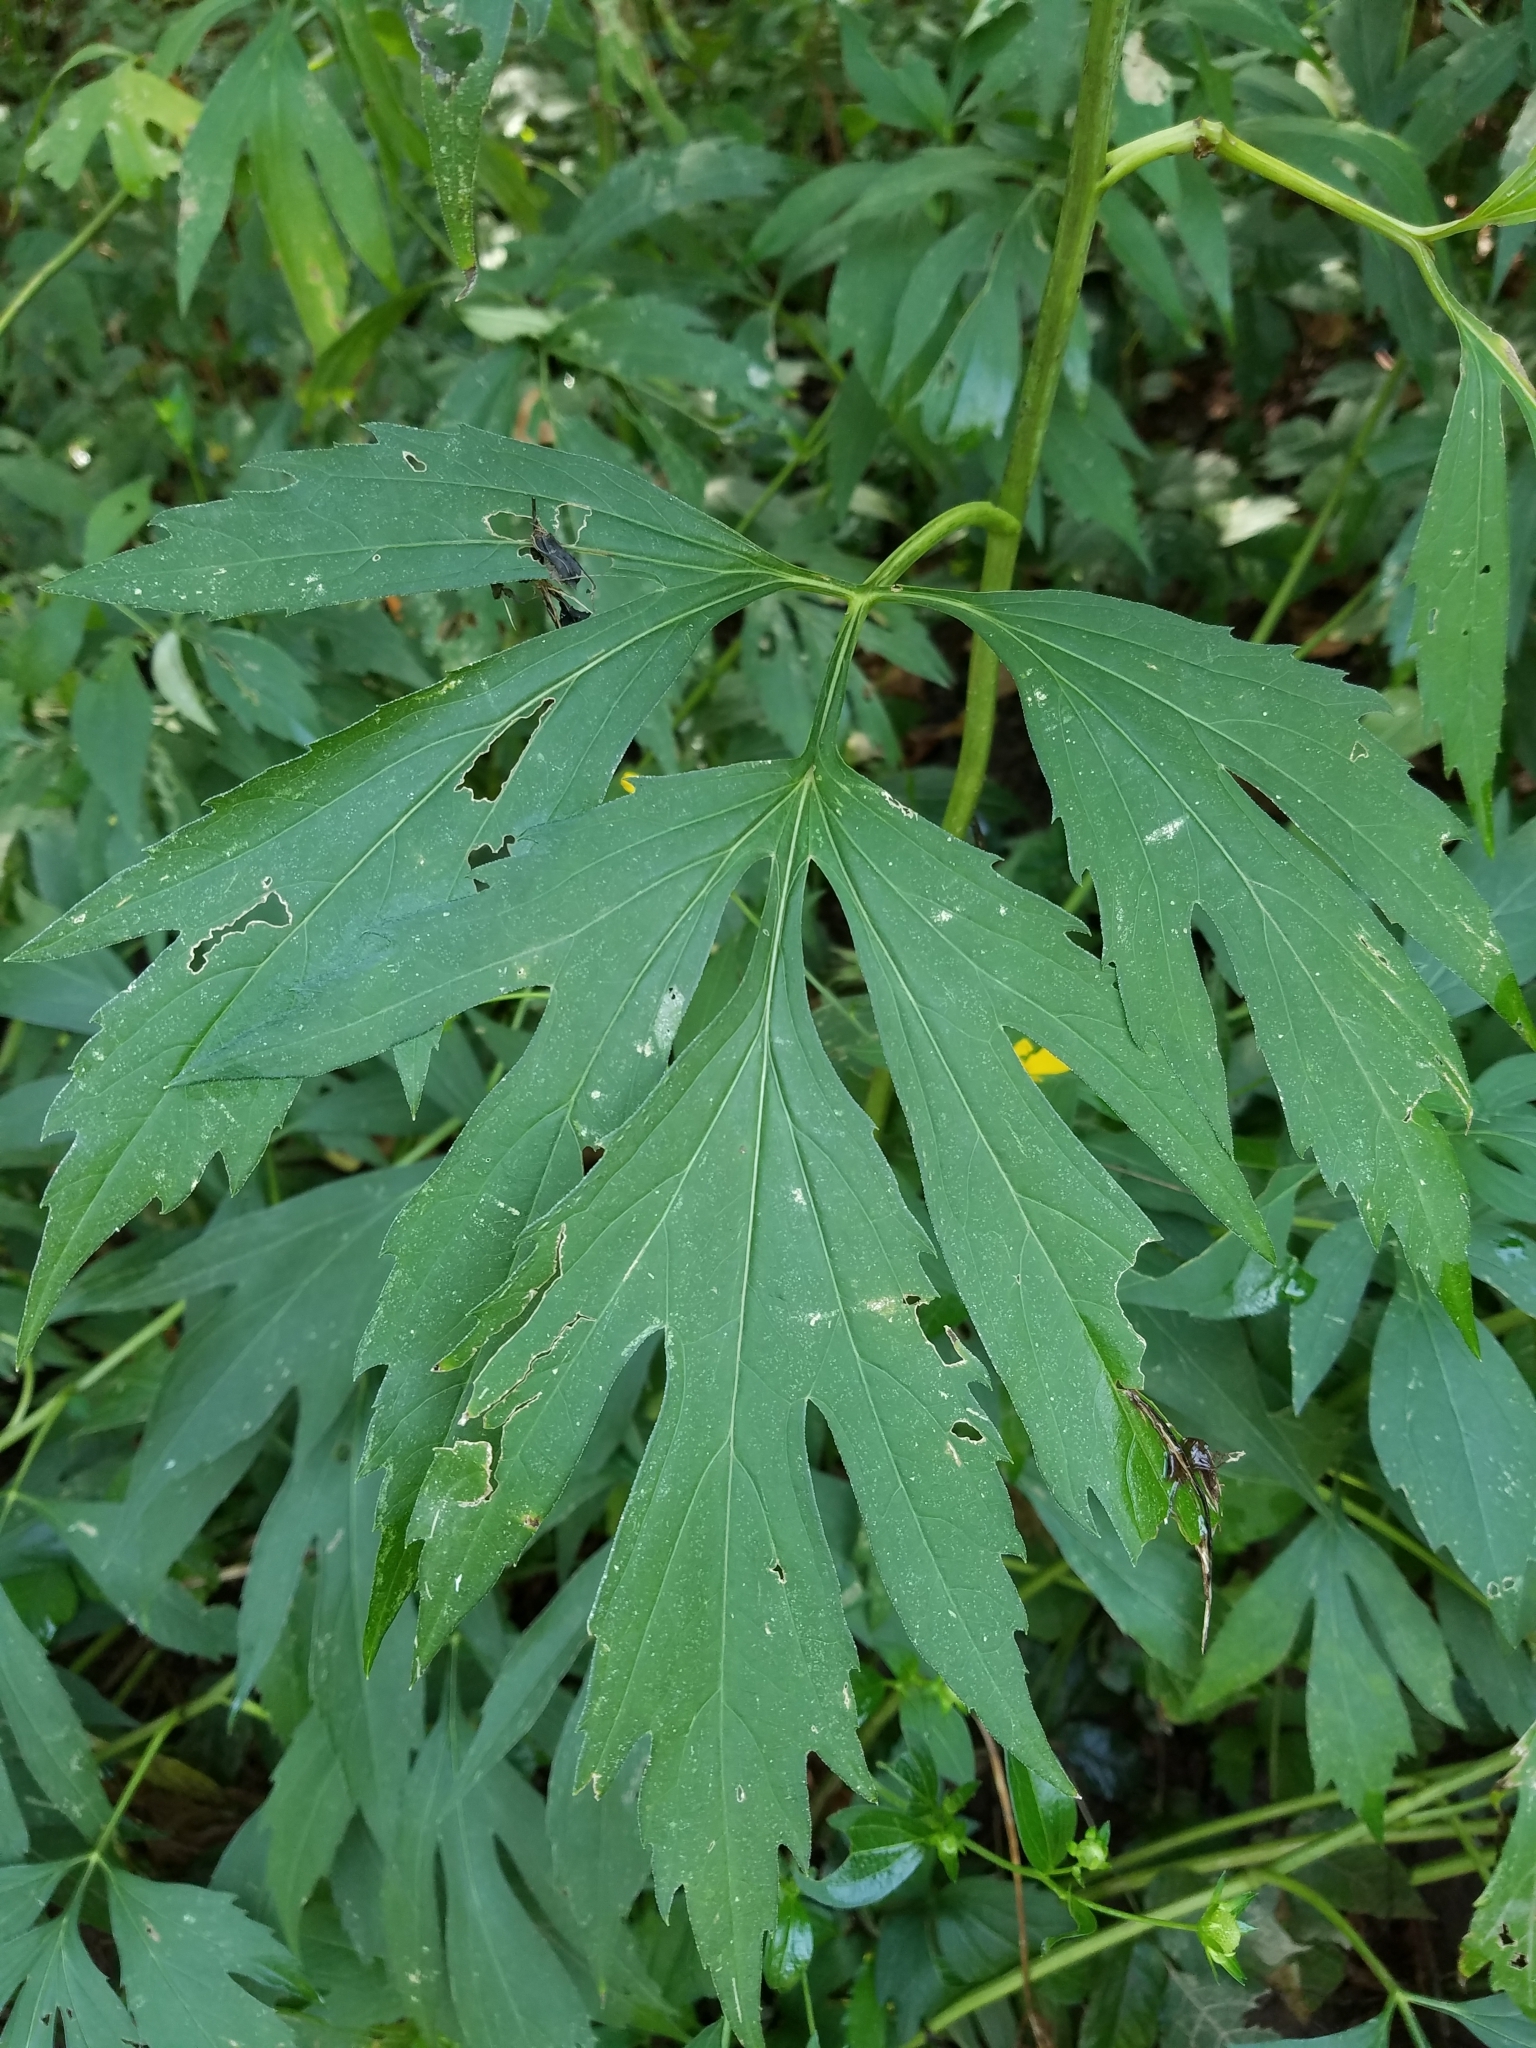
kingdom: Plantae
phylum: Tracheophyta
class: Magnoliopsida
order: Asterales
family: Asteraceae
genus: Rudbeckia
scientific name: Rudbeckia laciniata
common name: Coneflower
